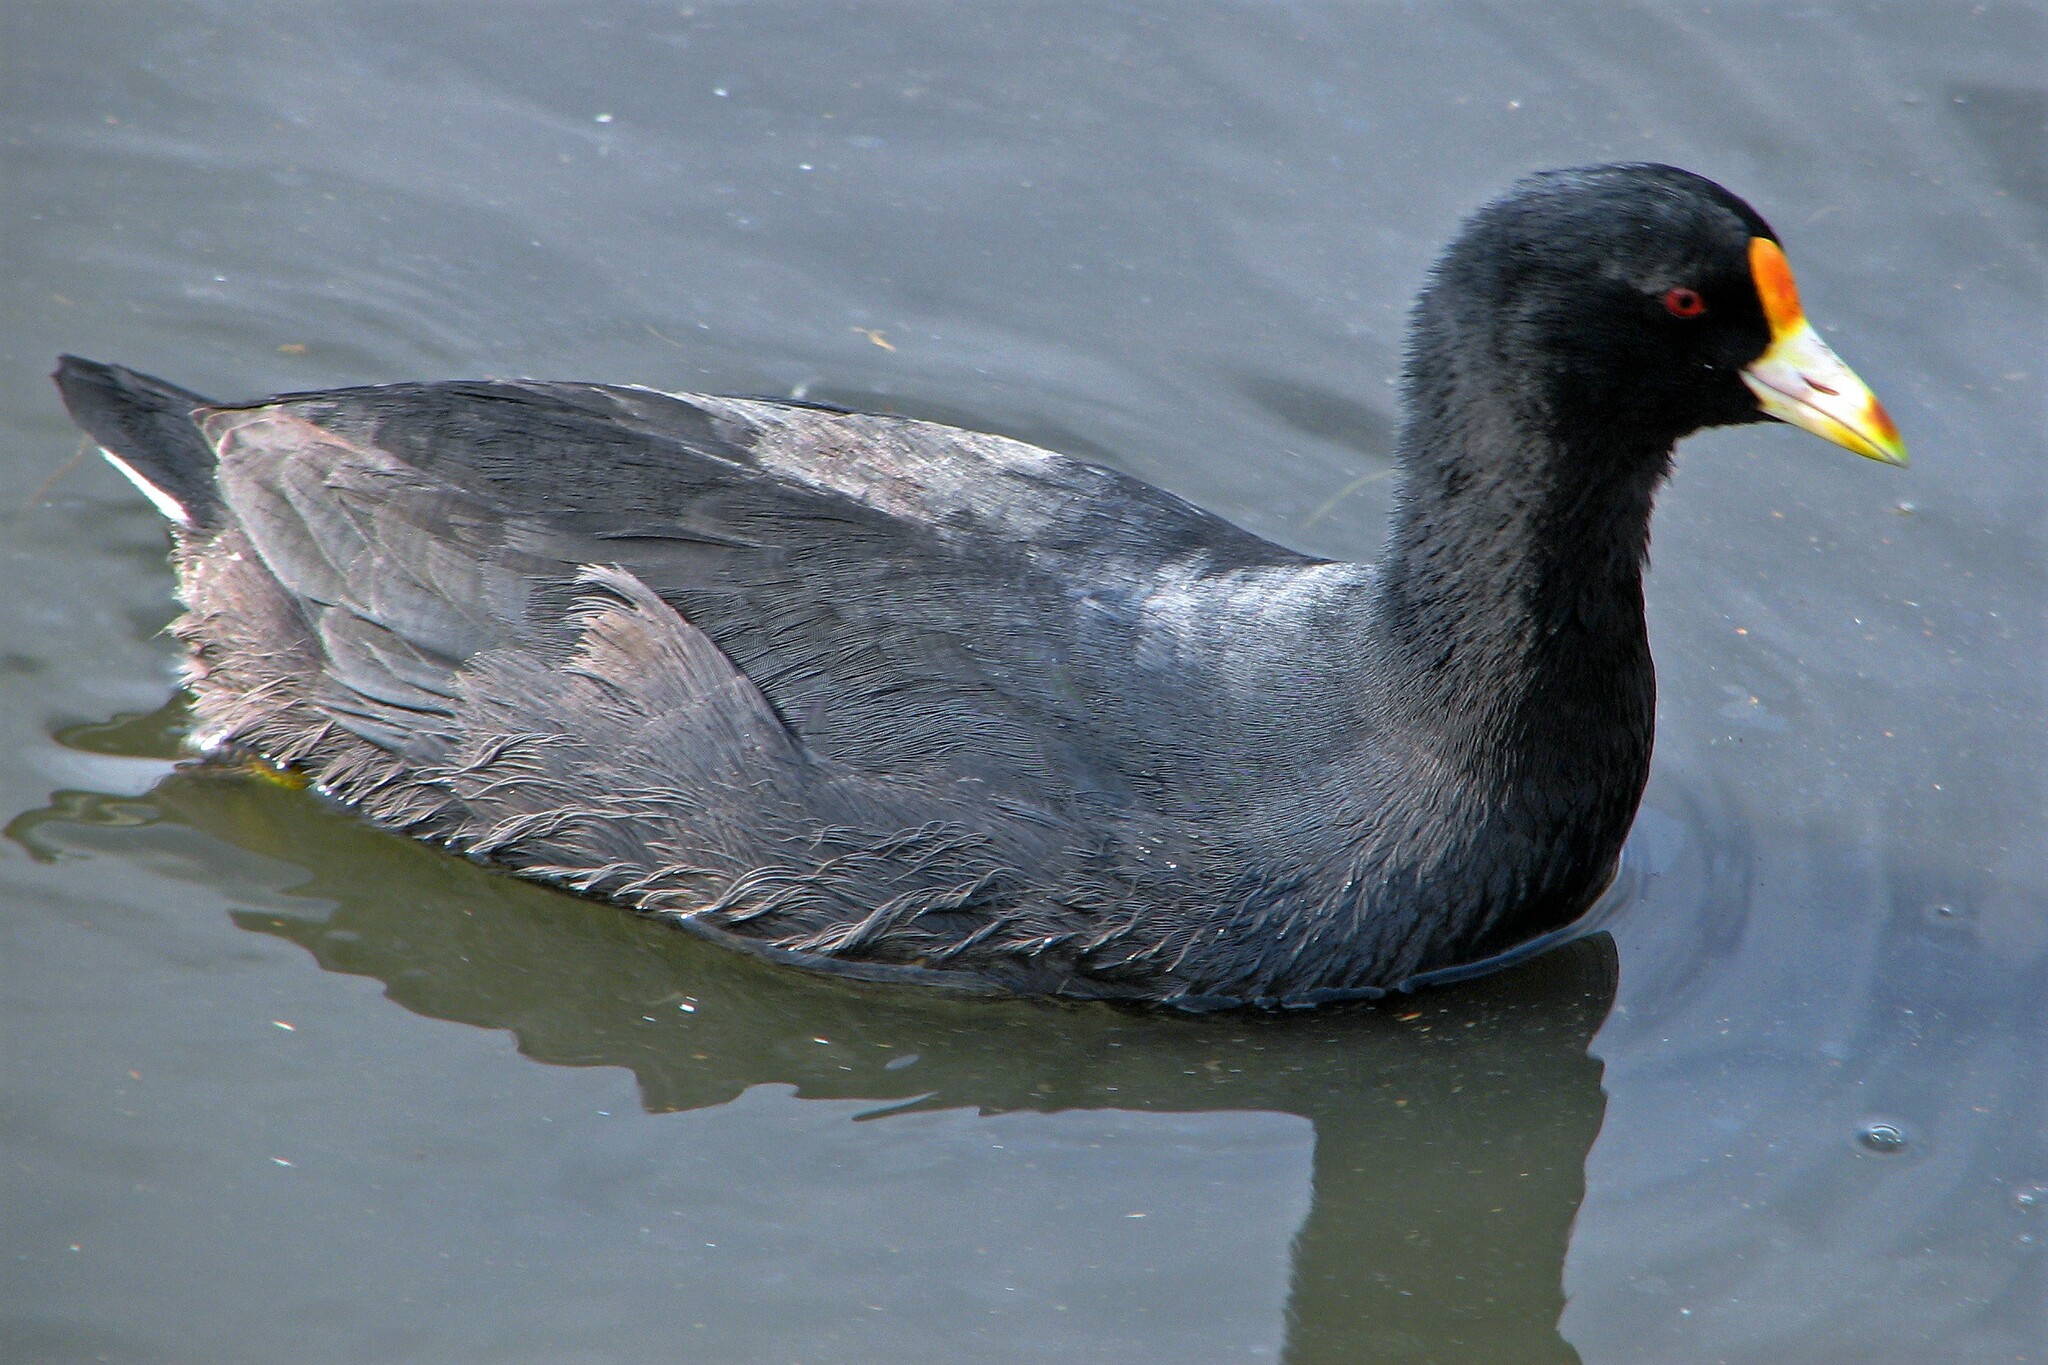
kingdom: Animalia
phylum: Chordata
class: Aves
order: Gruiformes
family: Rallidae
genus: Fulica
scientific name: Fulica leucoptera
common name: White-winged coot
